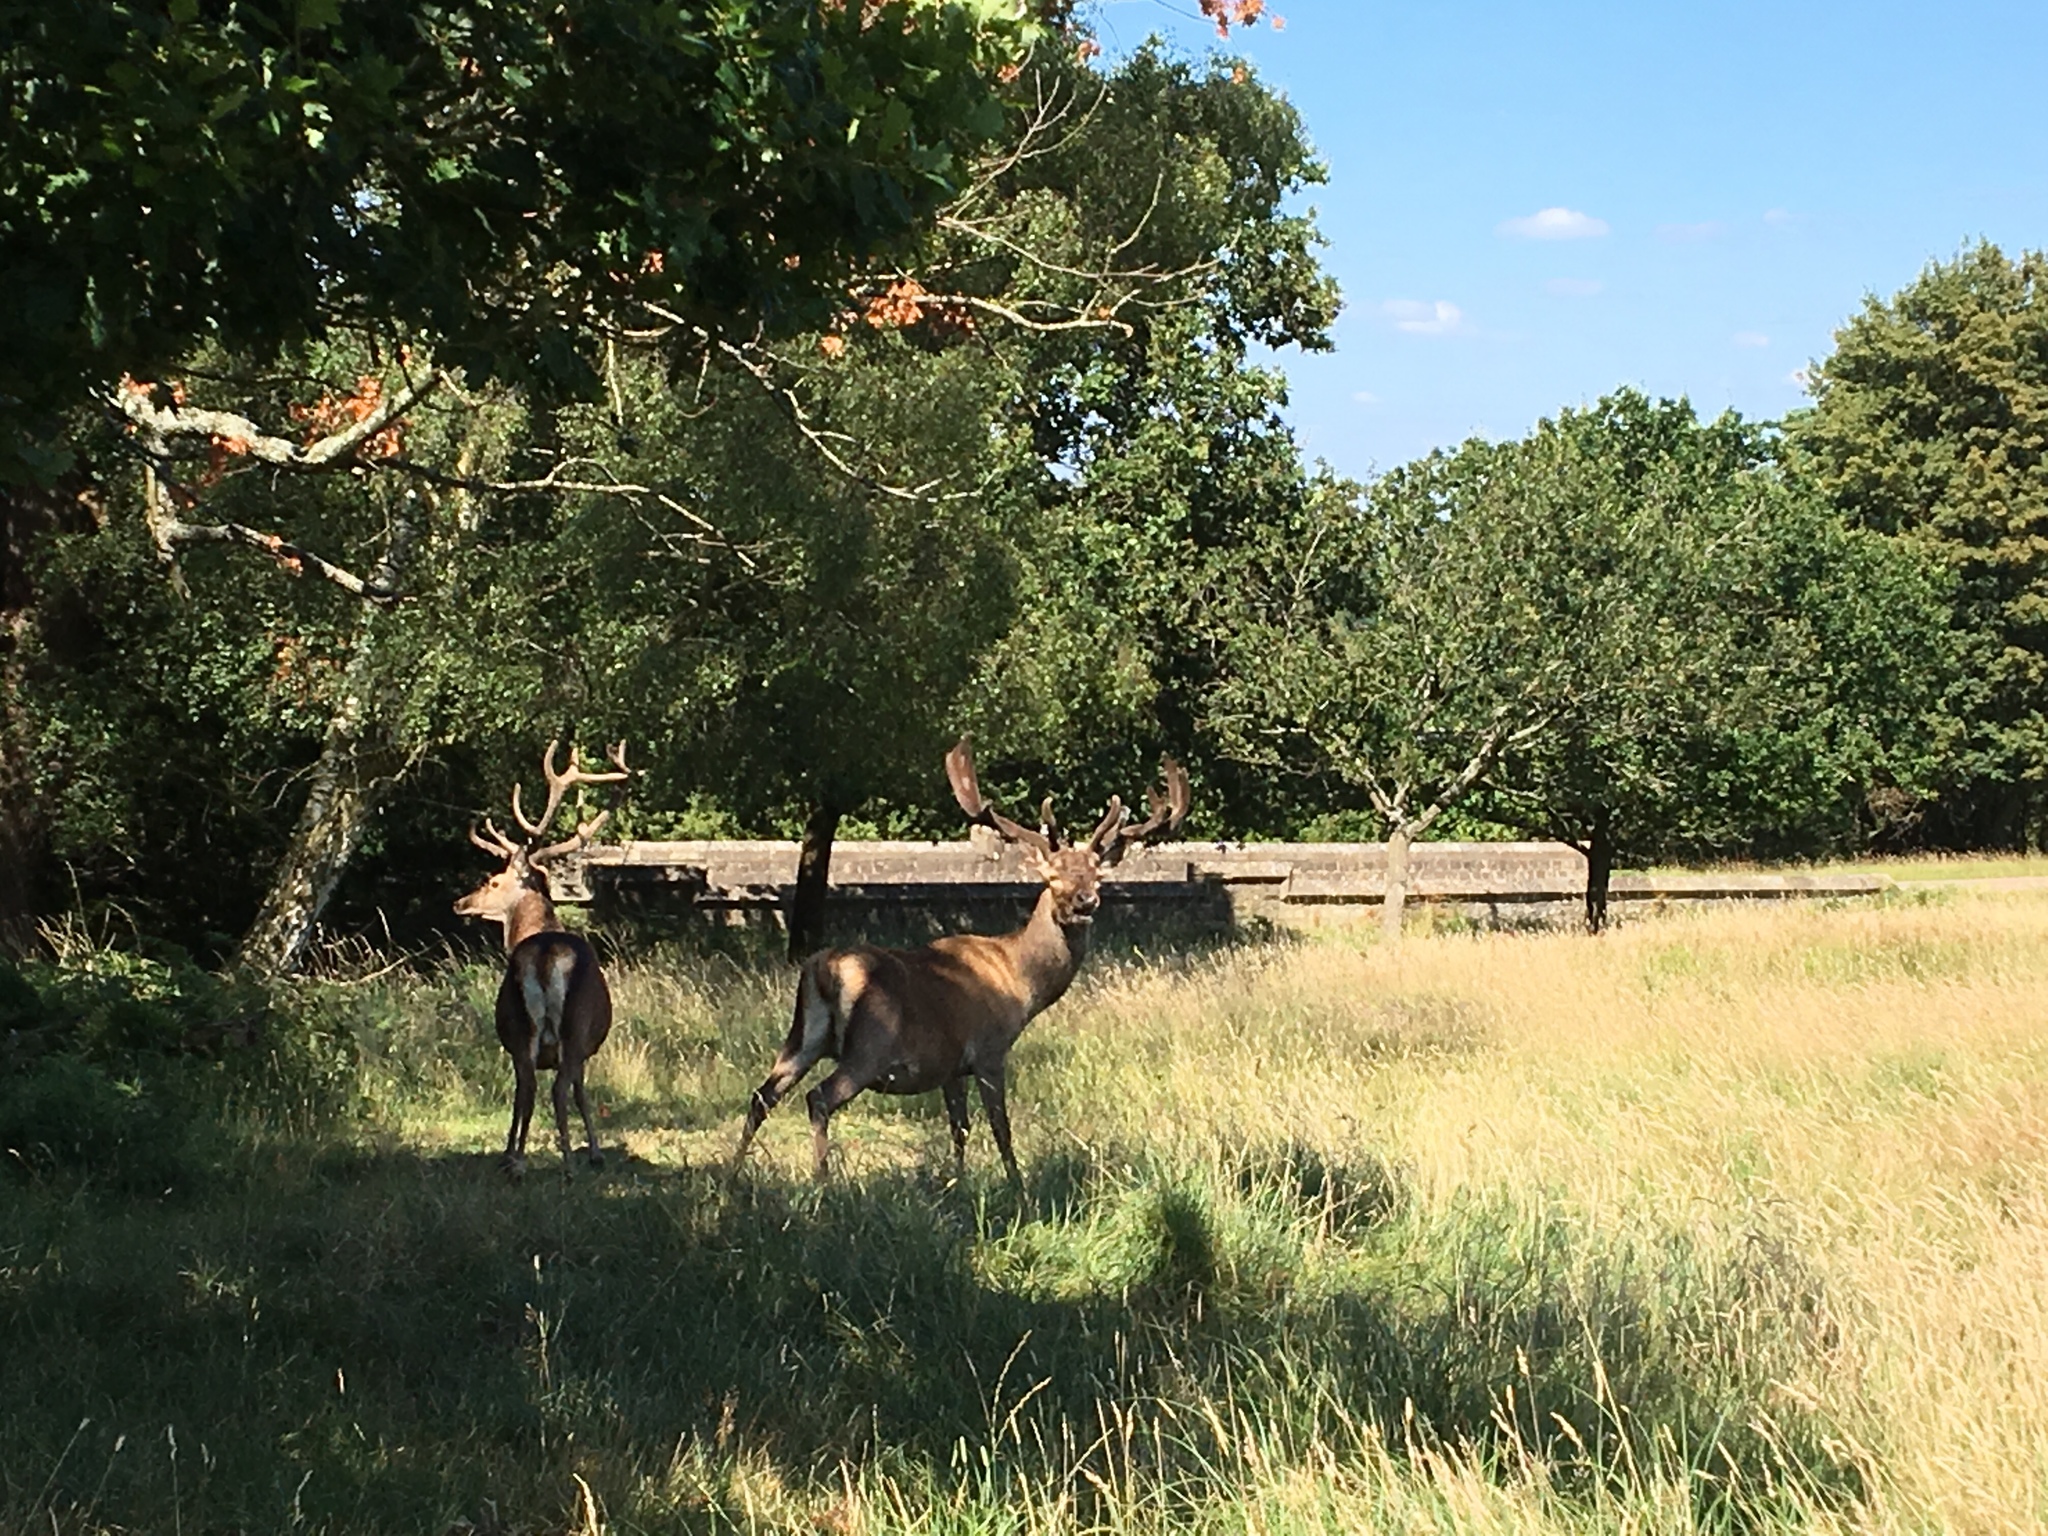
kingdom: Animalia
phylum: Chordata
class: Mammalia
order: Artiodactyla
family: Cervidae
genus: Cervus
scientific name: Cervus elaphus
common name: Red deer
